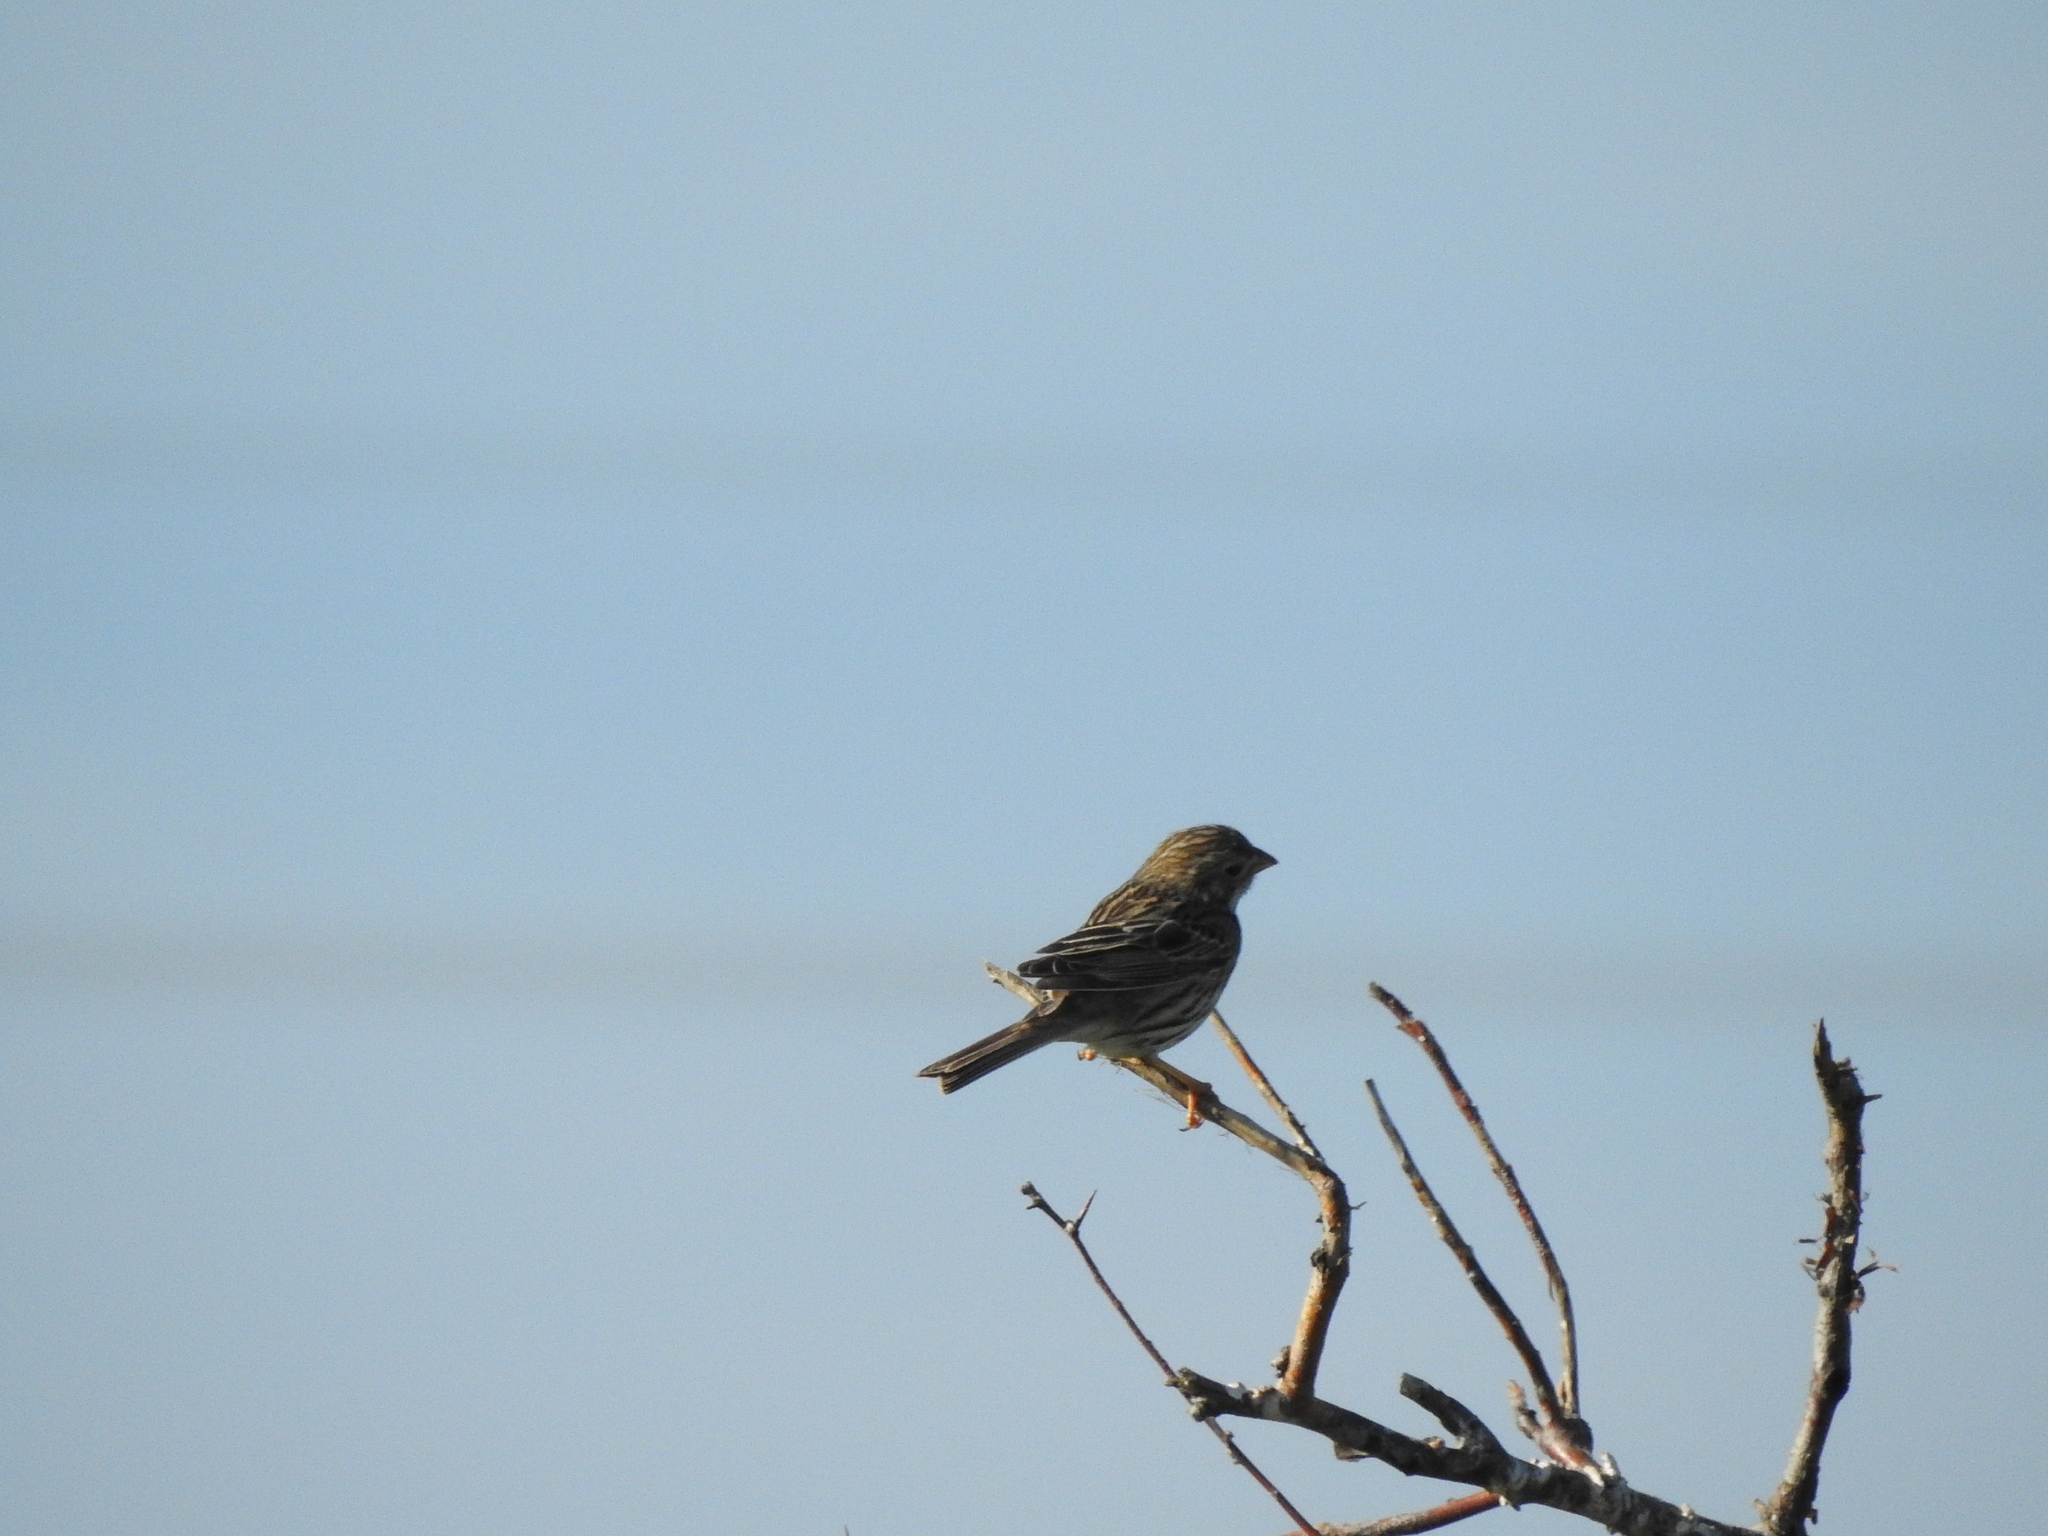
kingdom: Animalia
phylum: Chordata
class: Aves
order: Passeriformes
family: Emberizidae
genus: Emberiza
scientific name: Emberiza calandra
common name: Corn bunting
